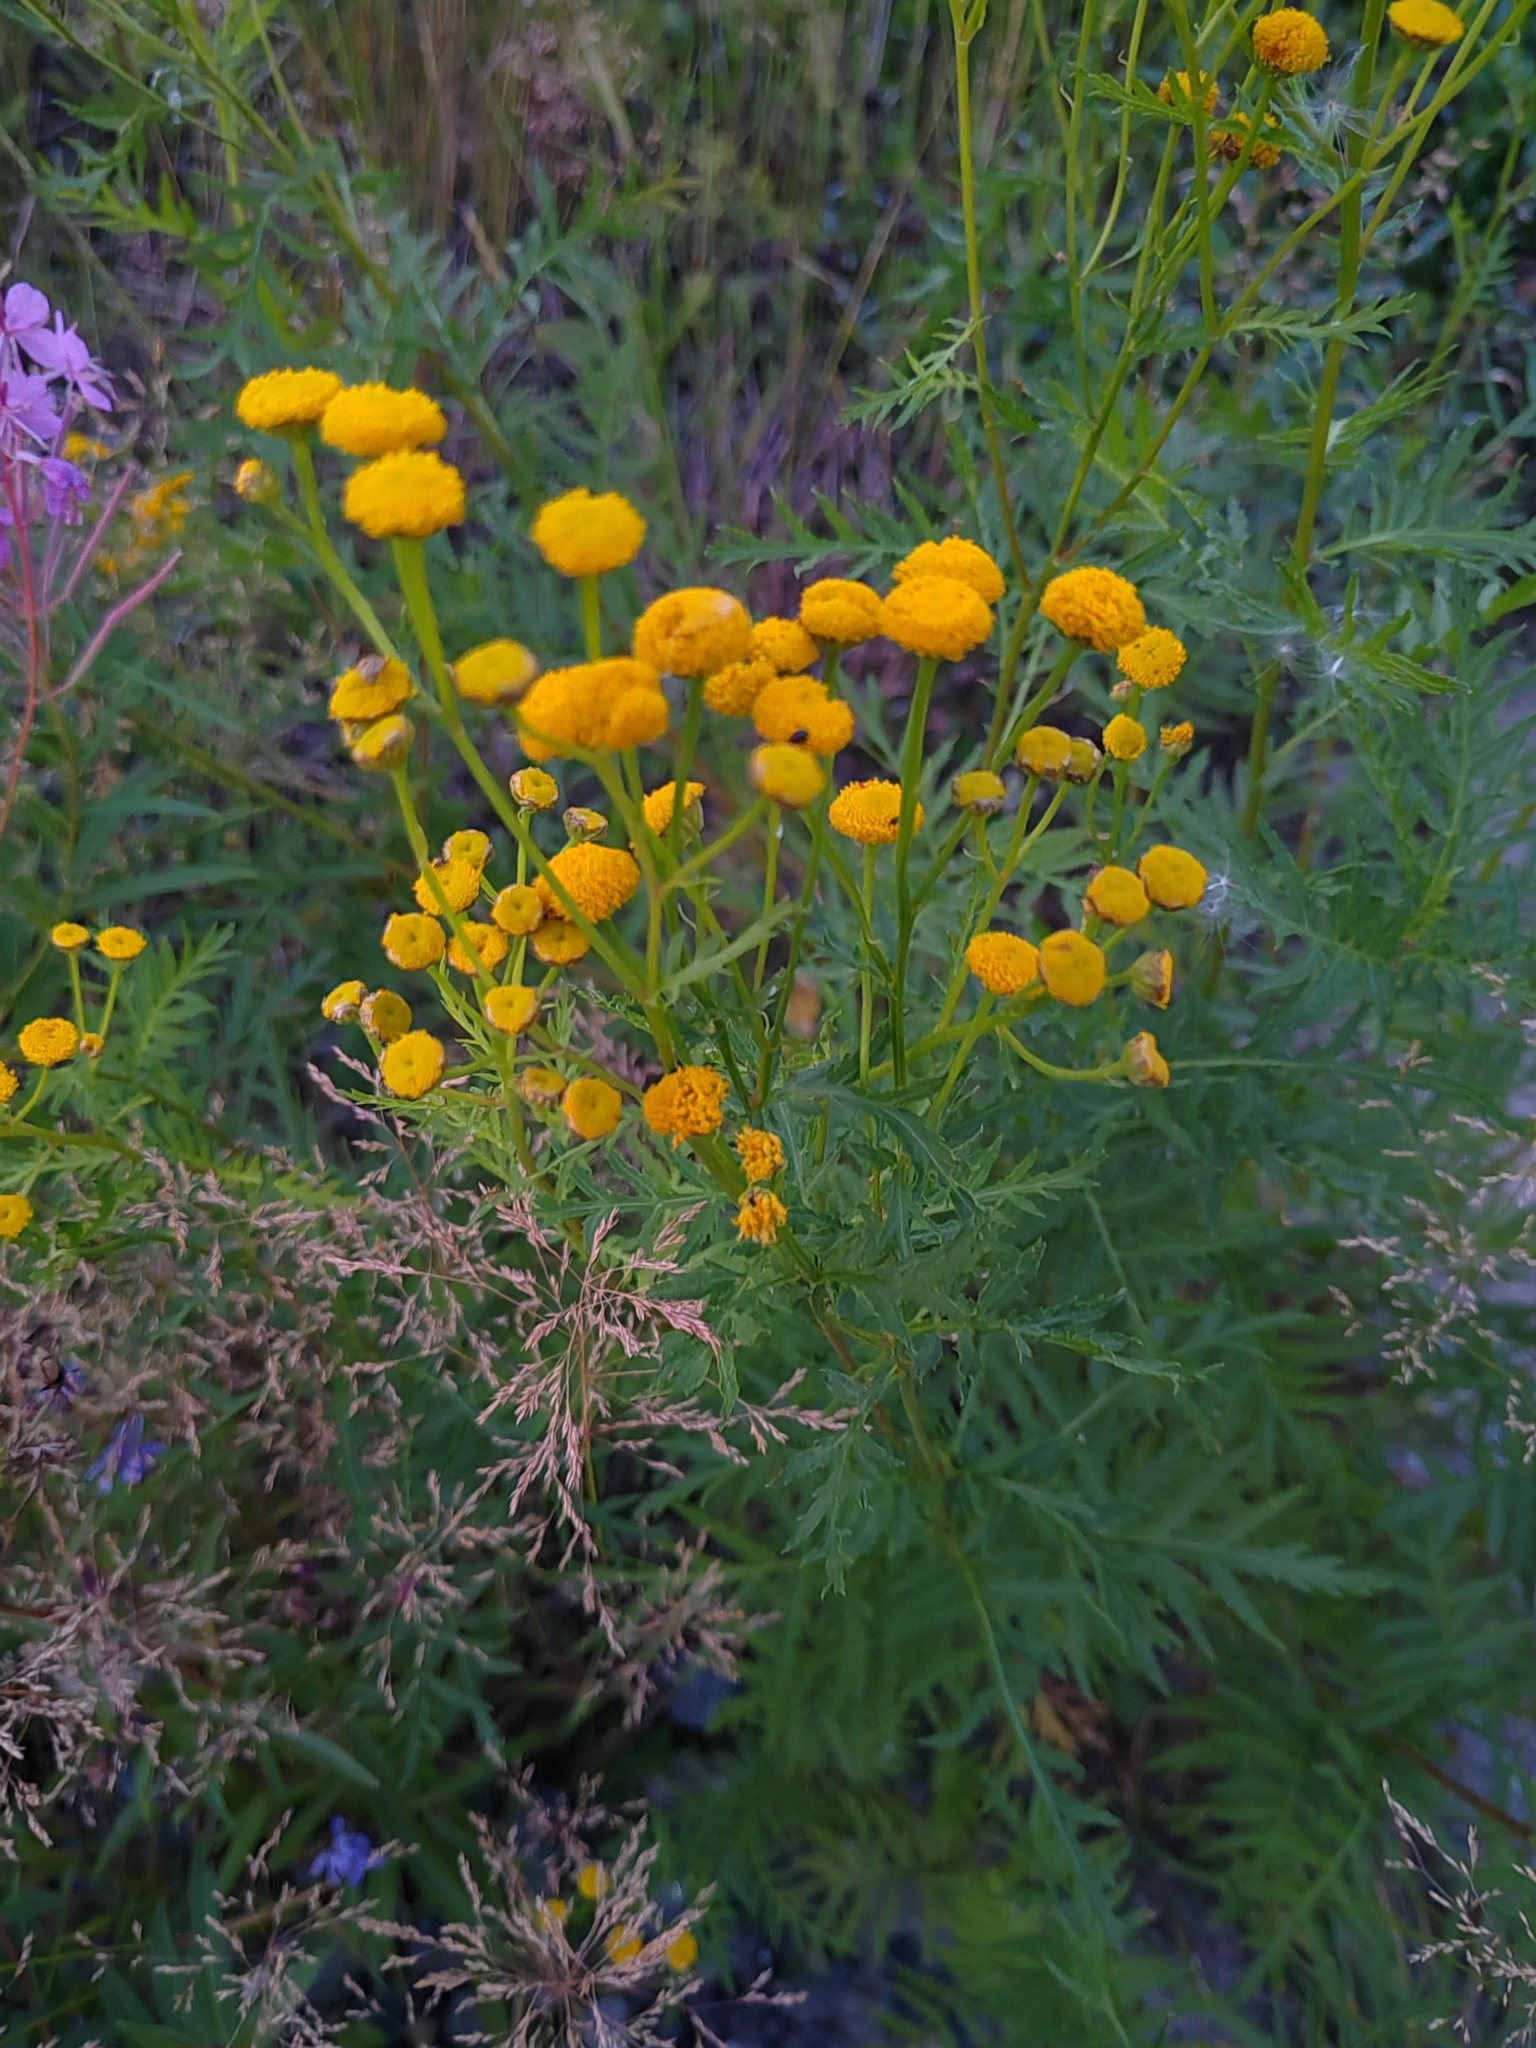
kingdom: Plantae
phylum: Tracheophyta
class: Magnoliopsida
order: Asterales
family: Asteraceae
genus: Tanacetum
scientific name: Tanacetum vulgare
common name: Common tansy
